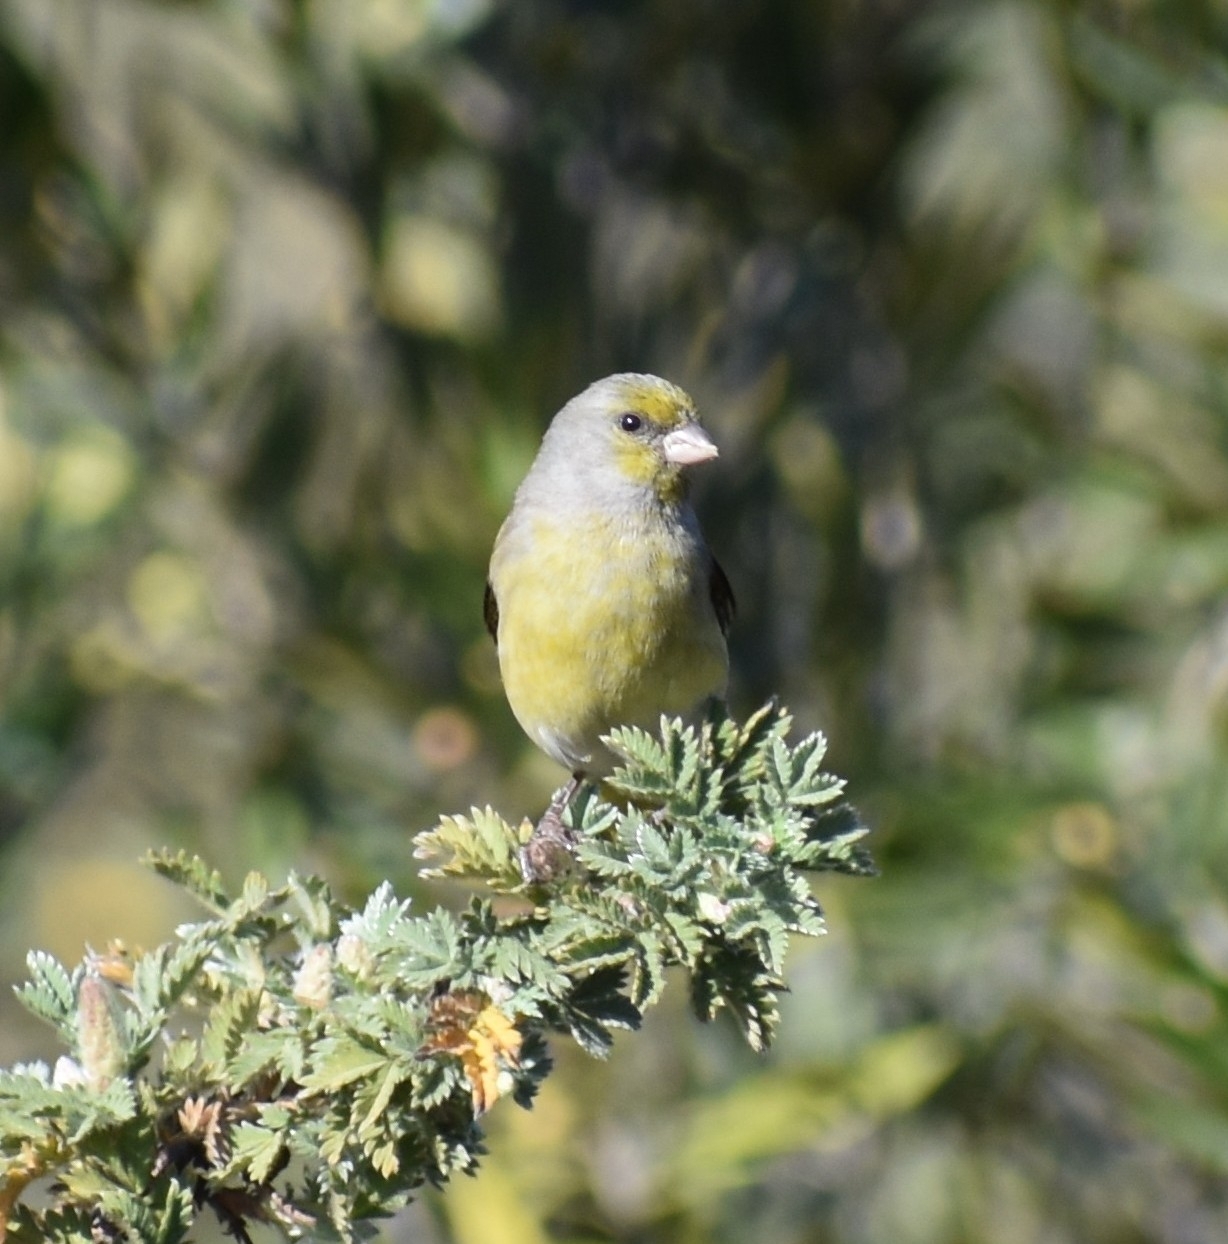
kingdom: Animalia
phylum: Chordata
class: Aves
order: Passeriformes
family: Fringillidae
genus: Serinus
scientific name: Serinus canicollis
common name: Cape canary
